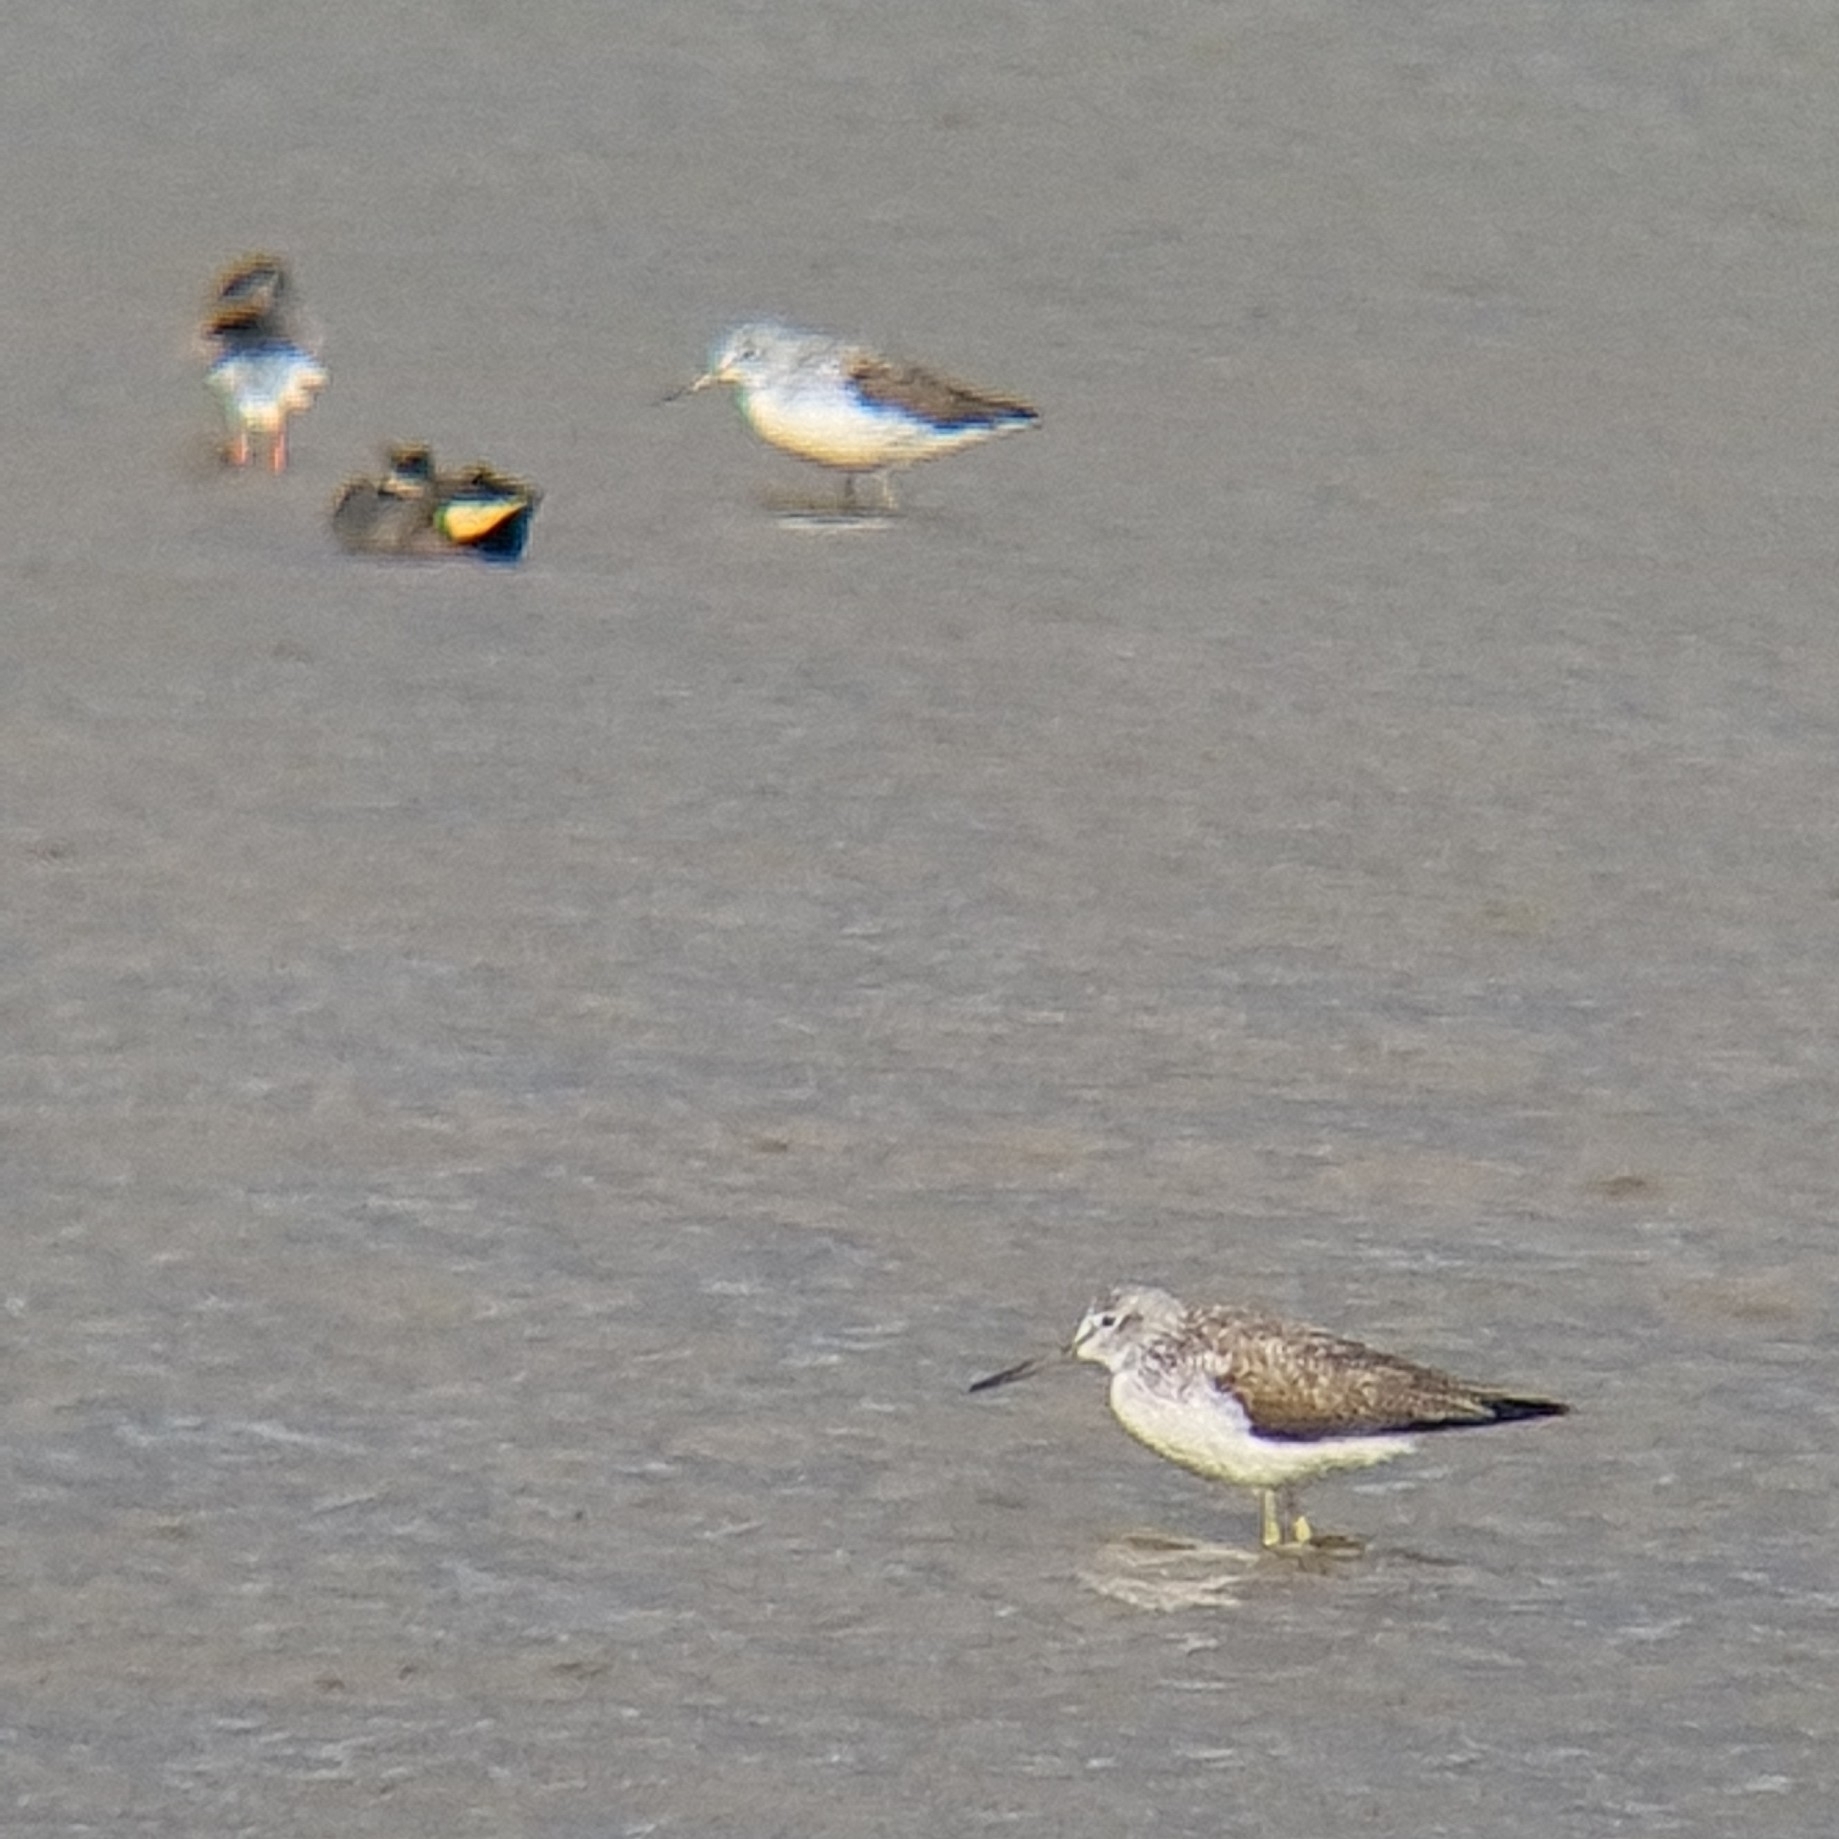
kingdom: Animalia
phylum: Chordata
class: Aves
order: Charadriiformes
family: Scolopacidae
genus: Tringa
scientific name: Tringa nebularia
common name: Common greenshank
